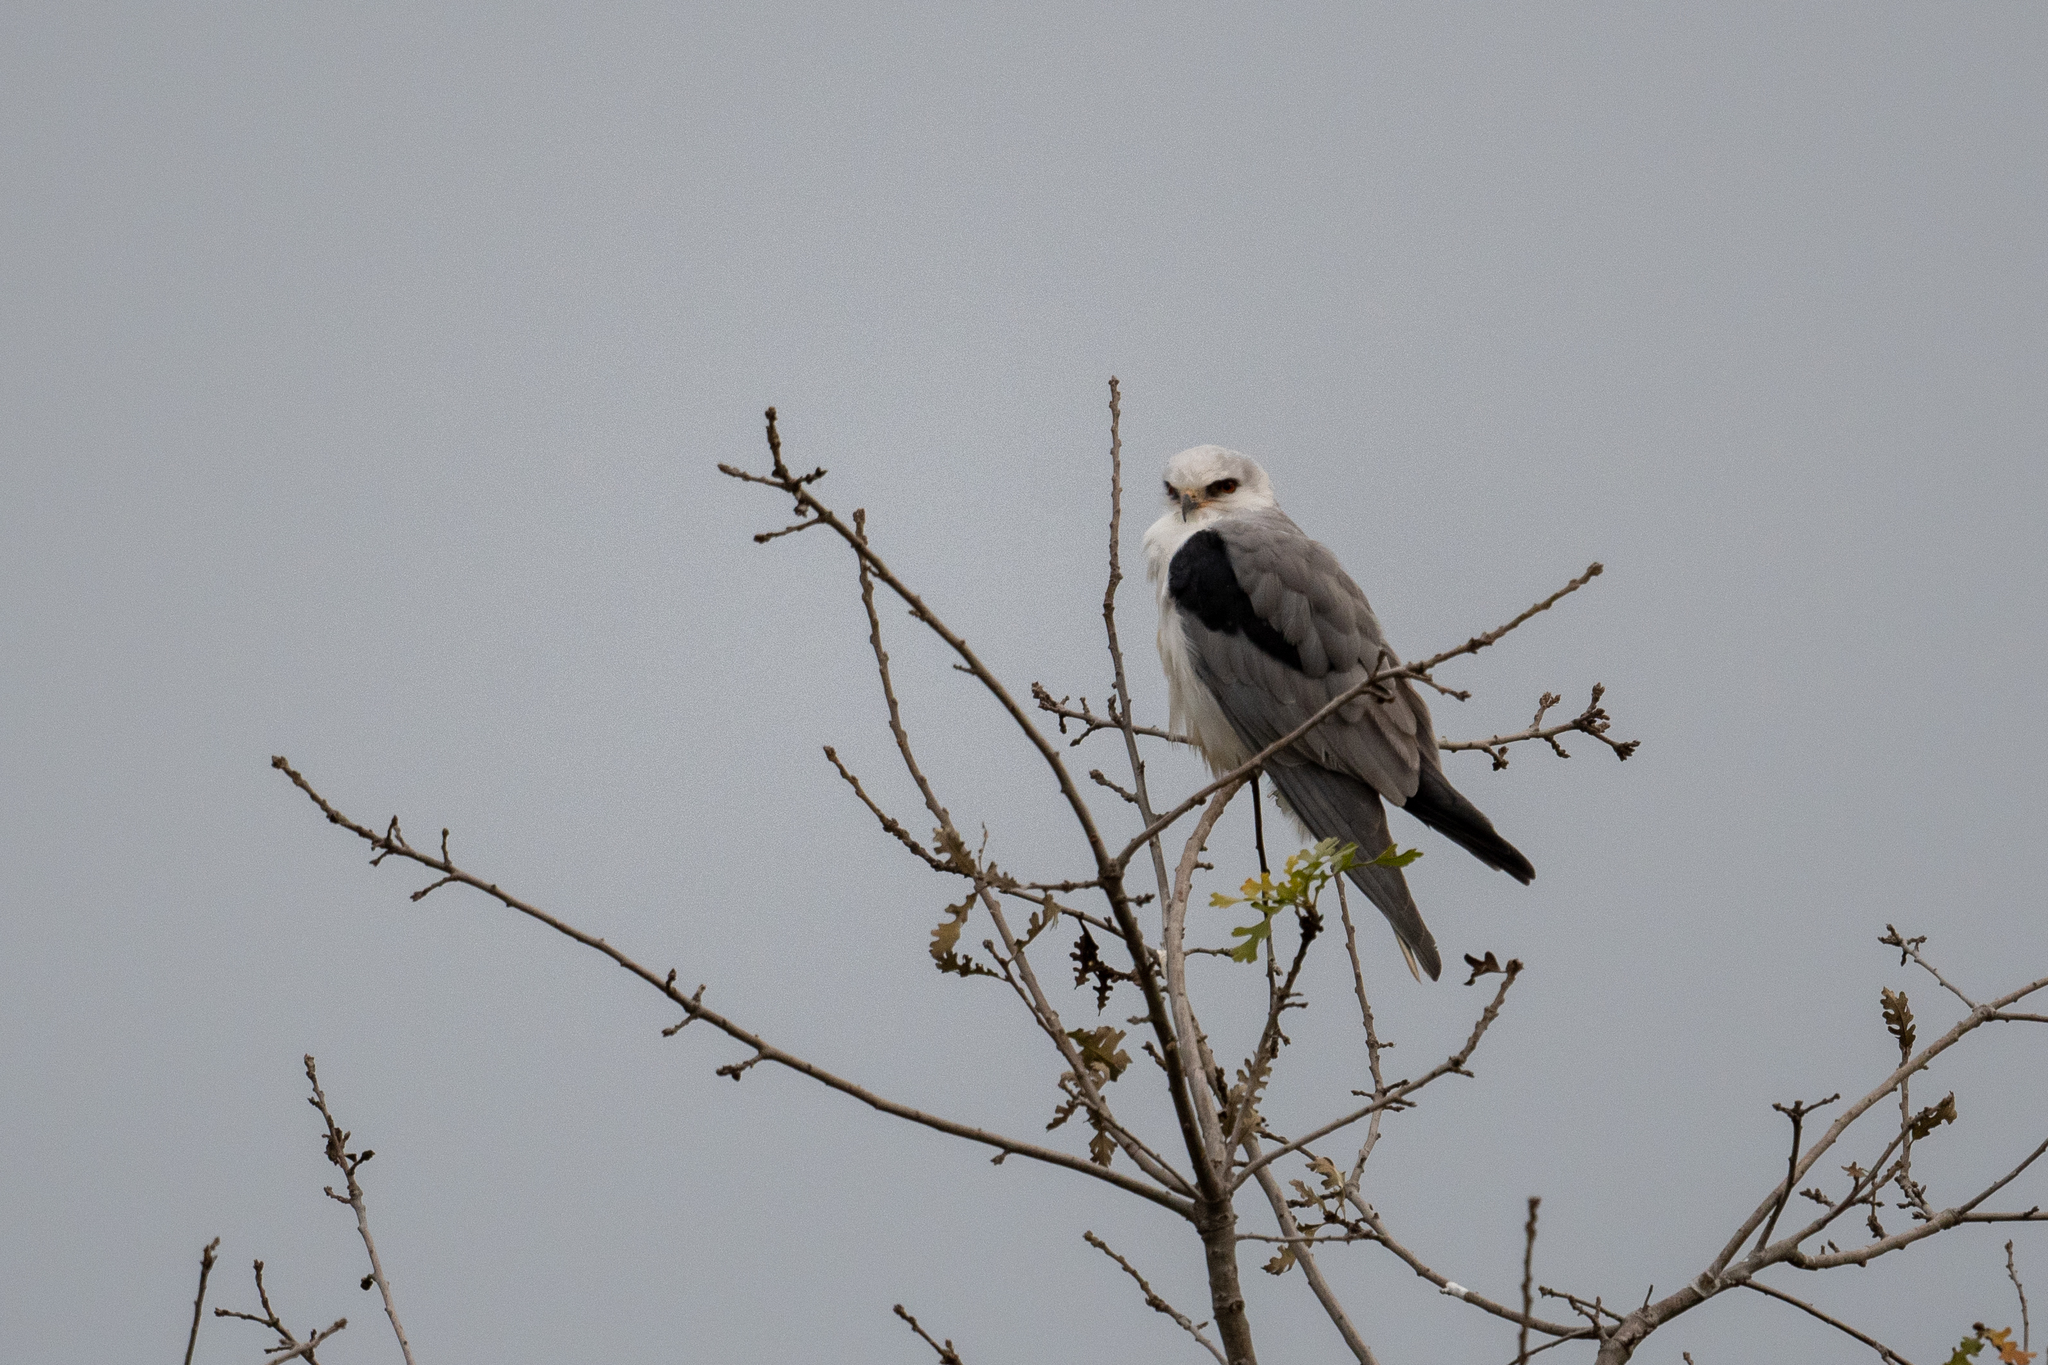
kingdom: Animalia
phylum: Chordata
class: Aves
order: Accipitriformes
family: Accipitridae
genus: Elanus
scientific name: Elanus leucurus
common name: White-tailed kite
